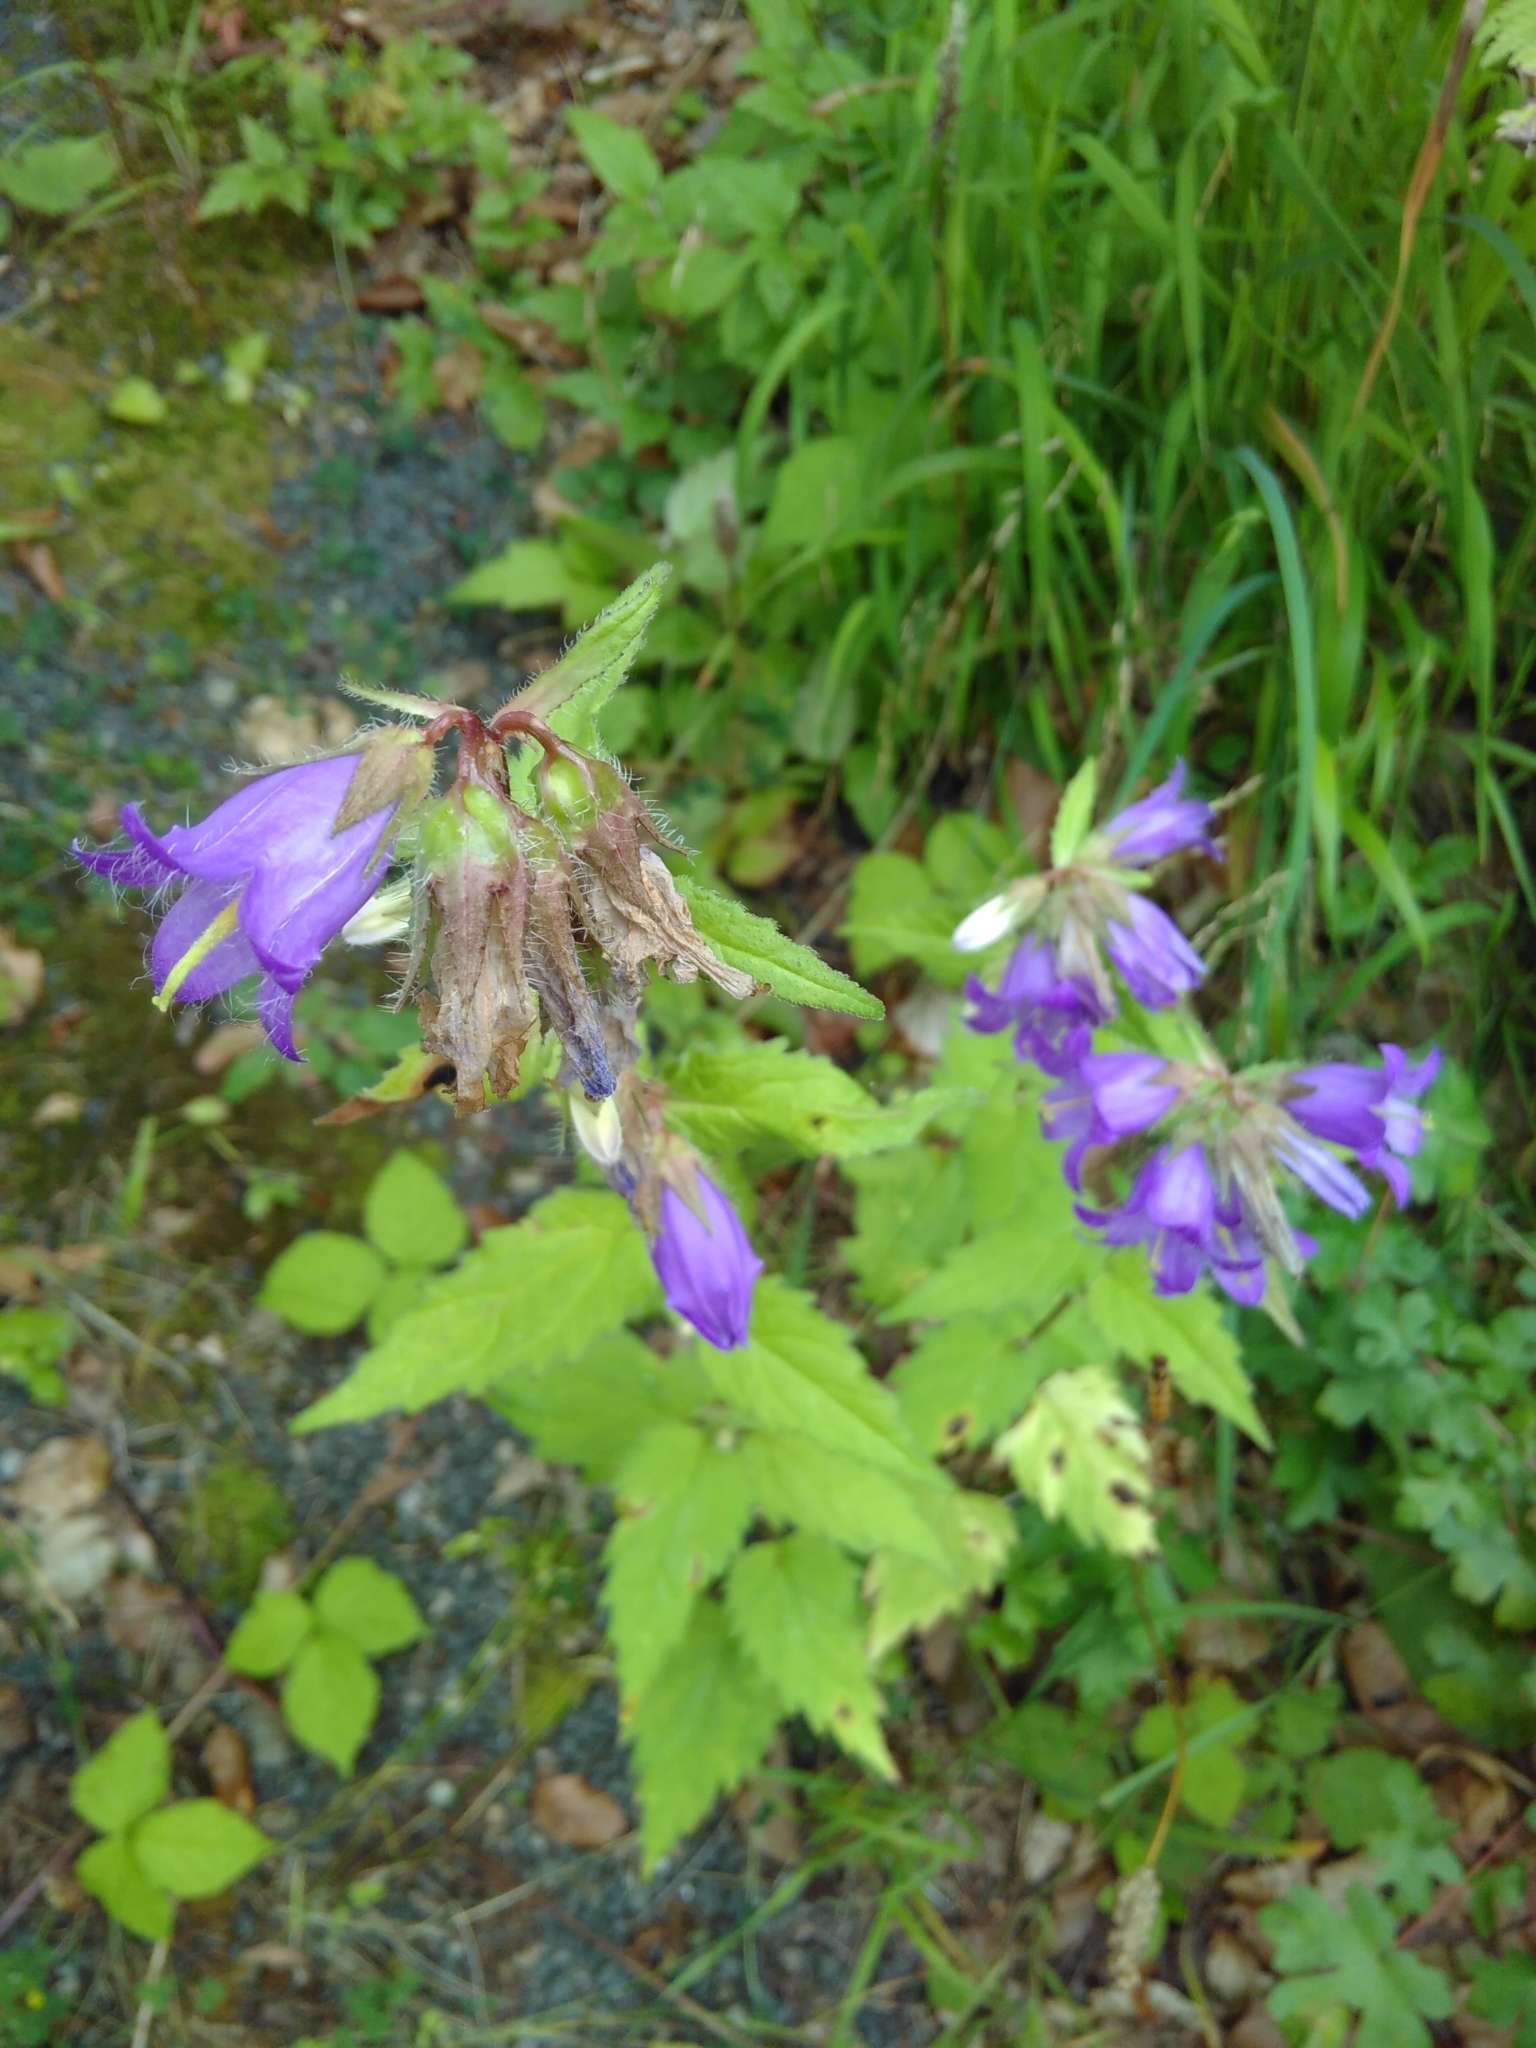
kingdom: Plantae
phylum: Tracheophyta
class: Magnoliopsida
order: Asterales
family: Campanulaceae
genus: Campanula
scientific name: Campanula trachelium
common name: Nettle-leaved bellflower
